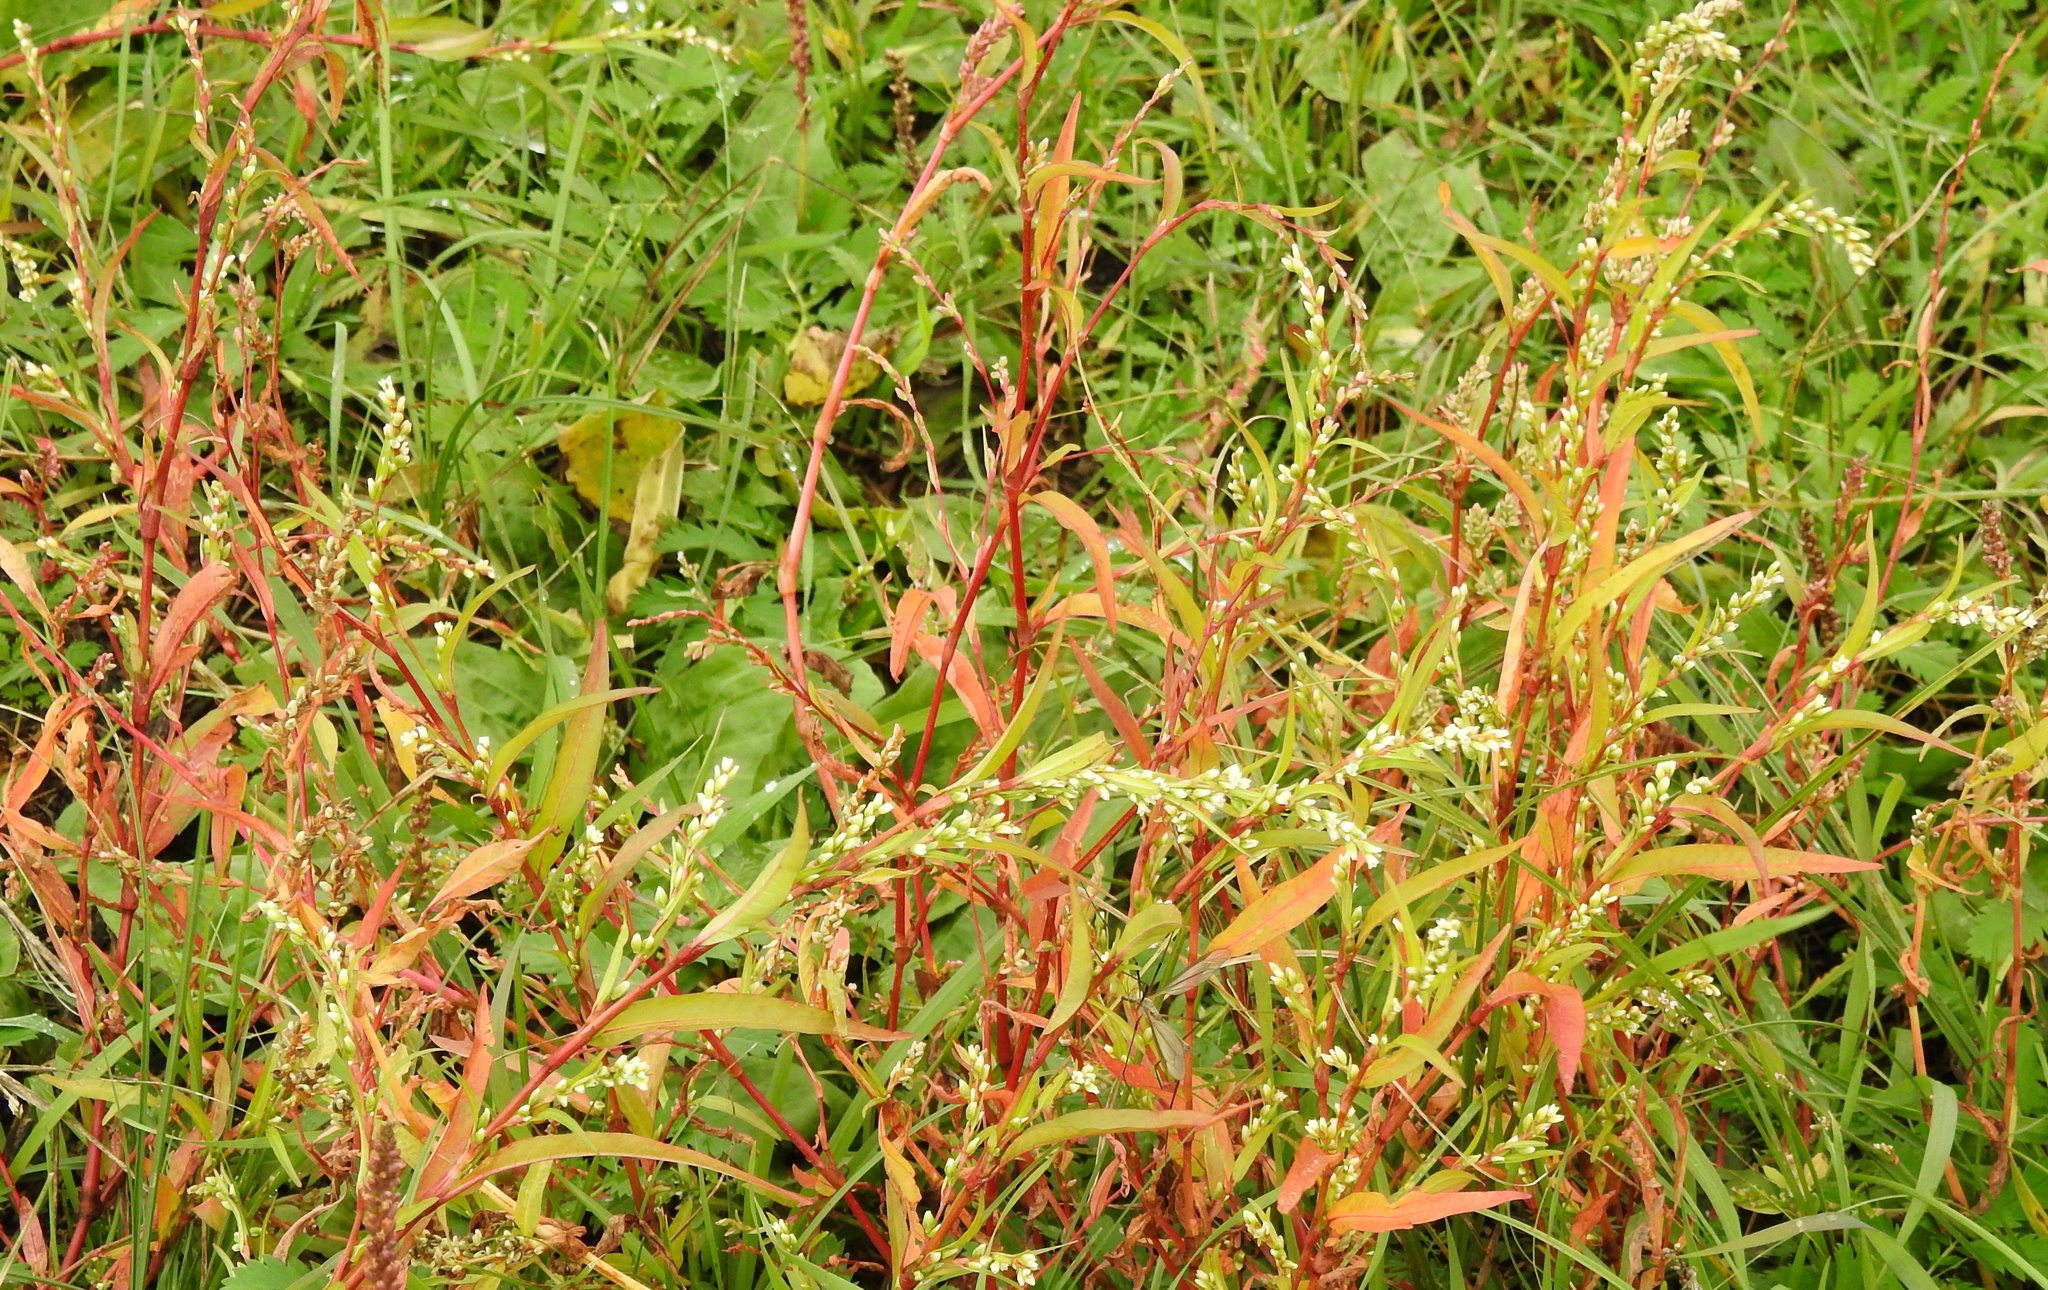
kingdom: Plantae
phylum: Tracheophyta
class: Magnoliopsida
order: Caryophyllales
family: Polygonaceae
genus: Persicaria
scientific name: Persicaria hydropiper
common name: Water-pepper
